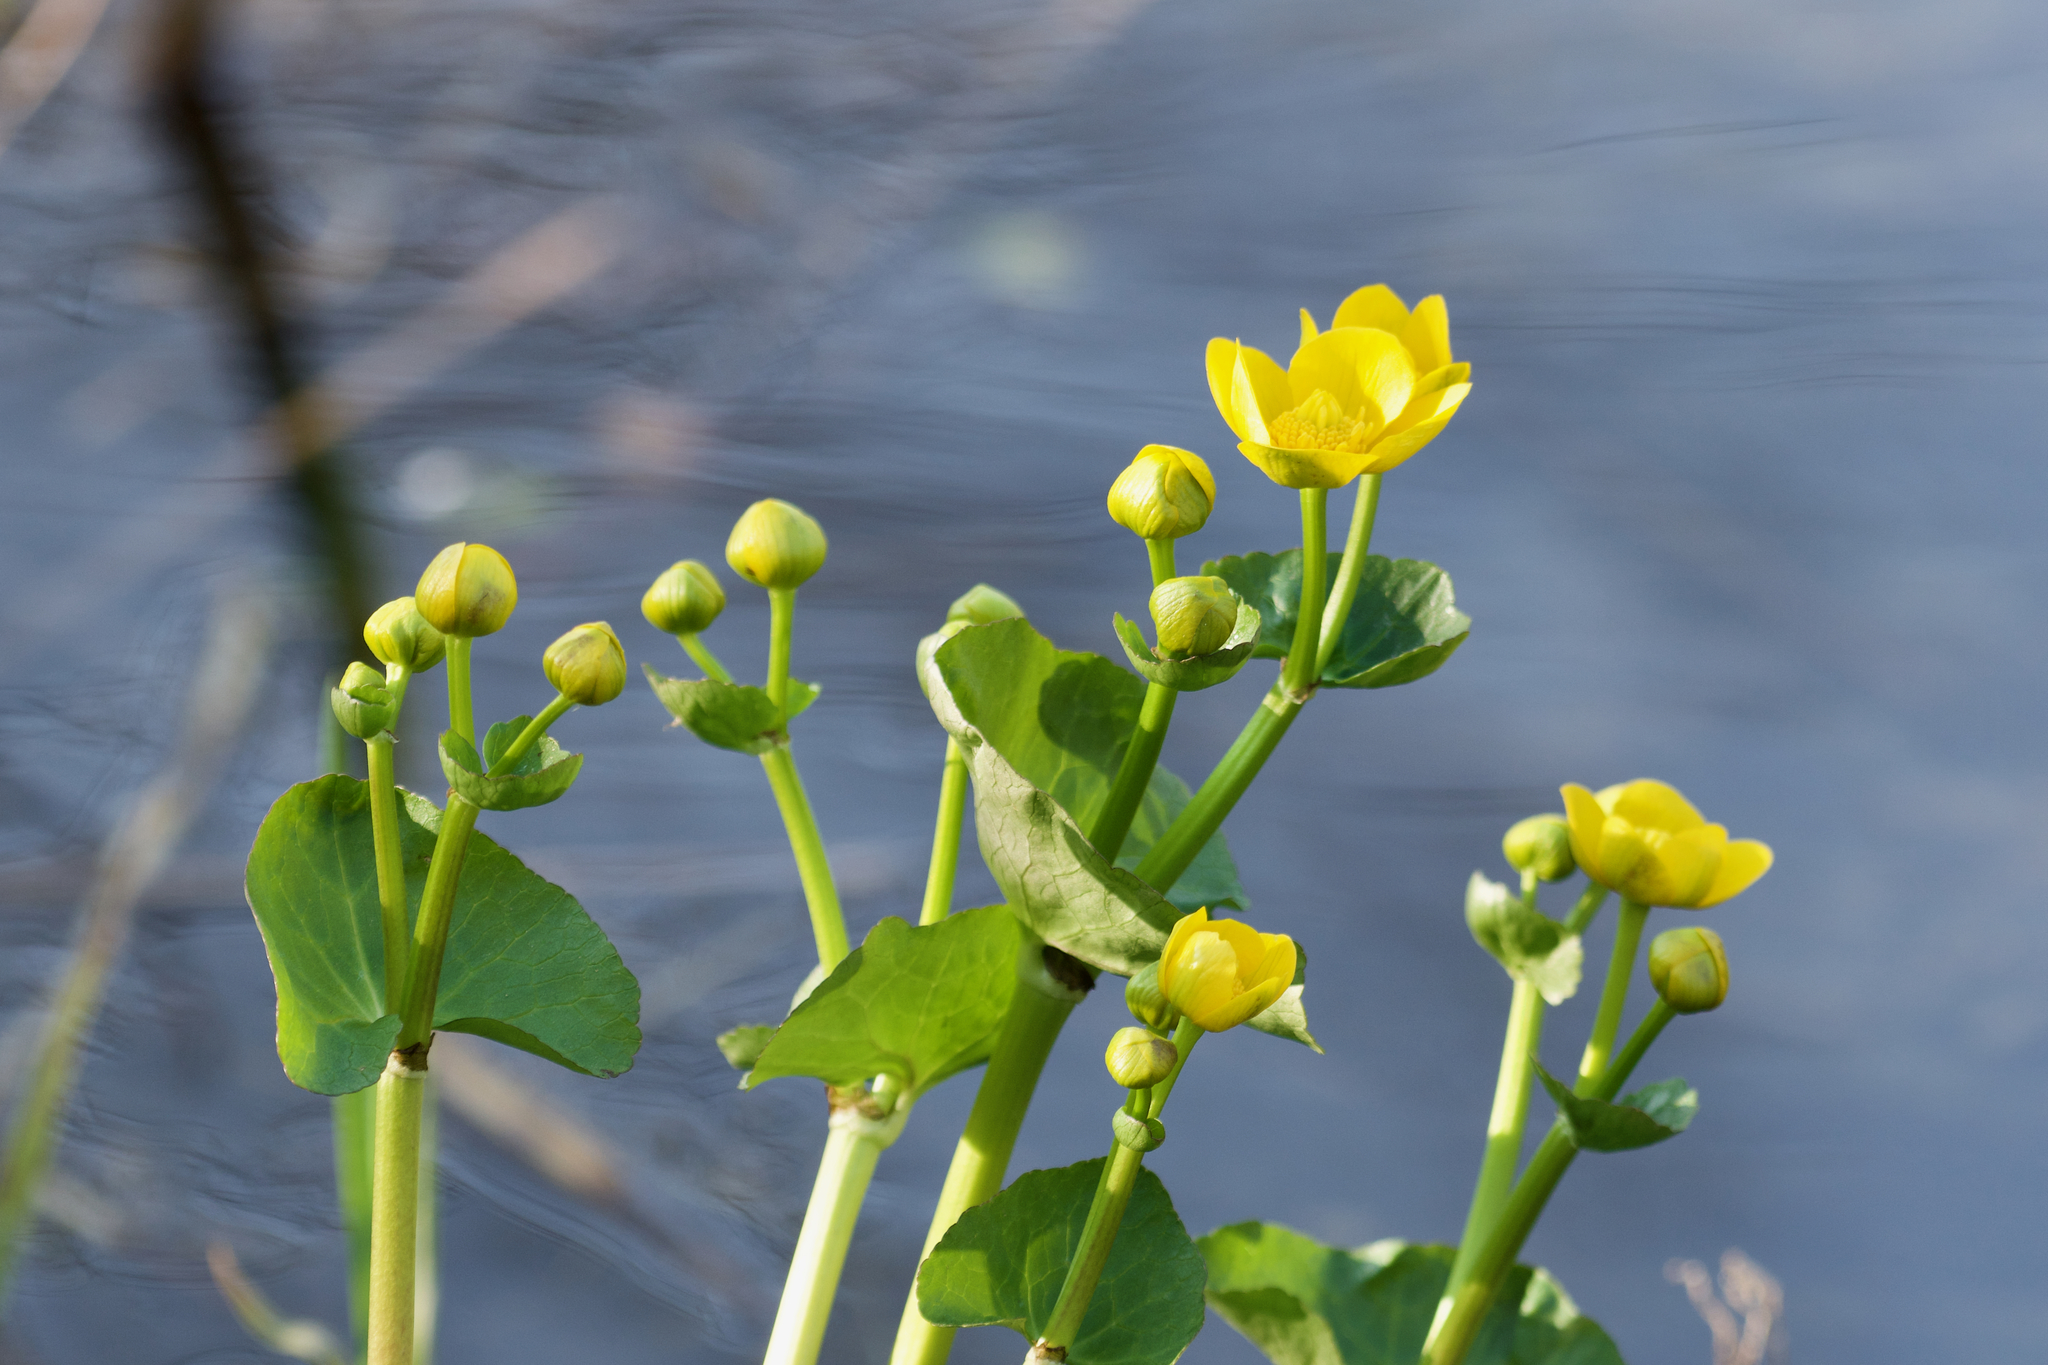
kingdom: Plantae
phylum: Tracheophyta
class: Magnoliopsida
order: Ranunculales
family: Ranunculaceae
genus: Caltha
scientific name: Caltha palustris
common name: Marsh marigold
